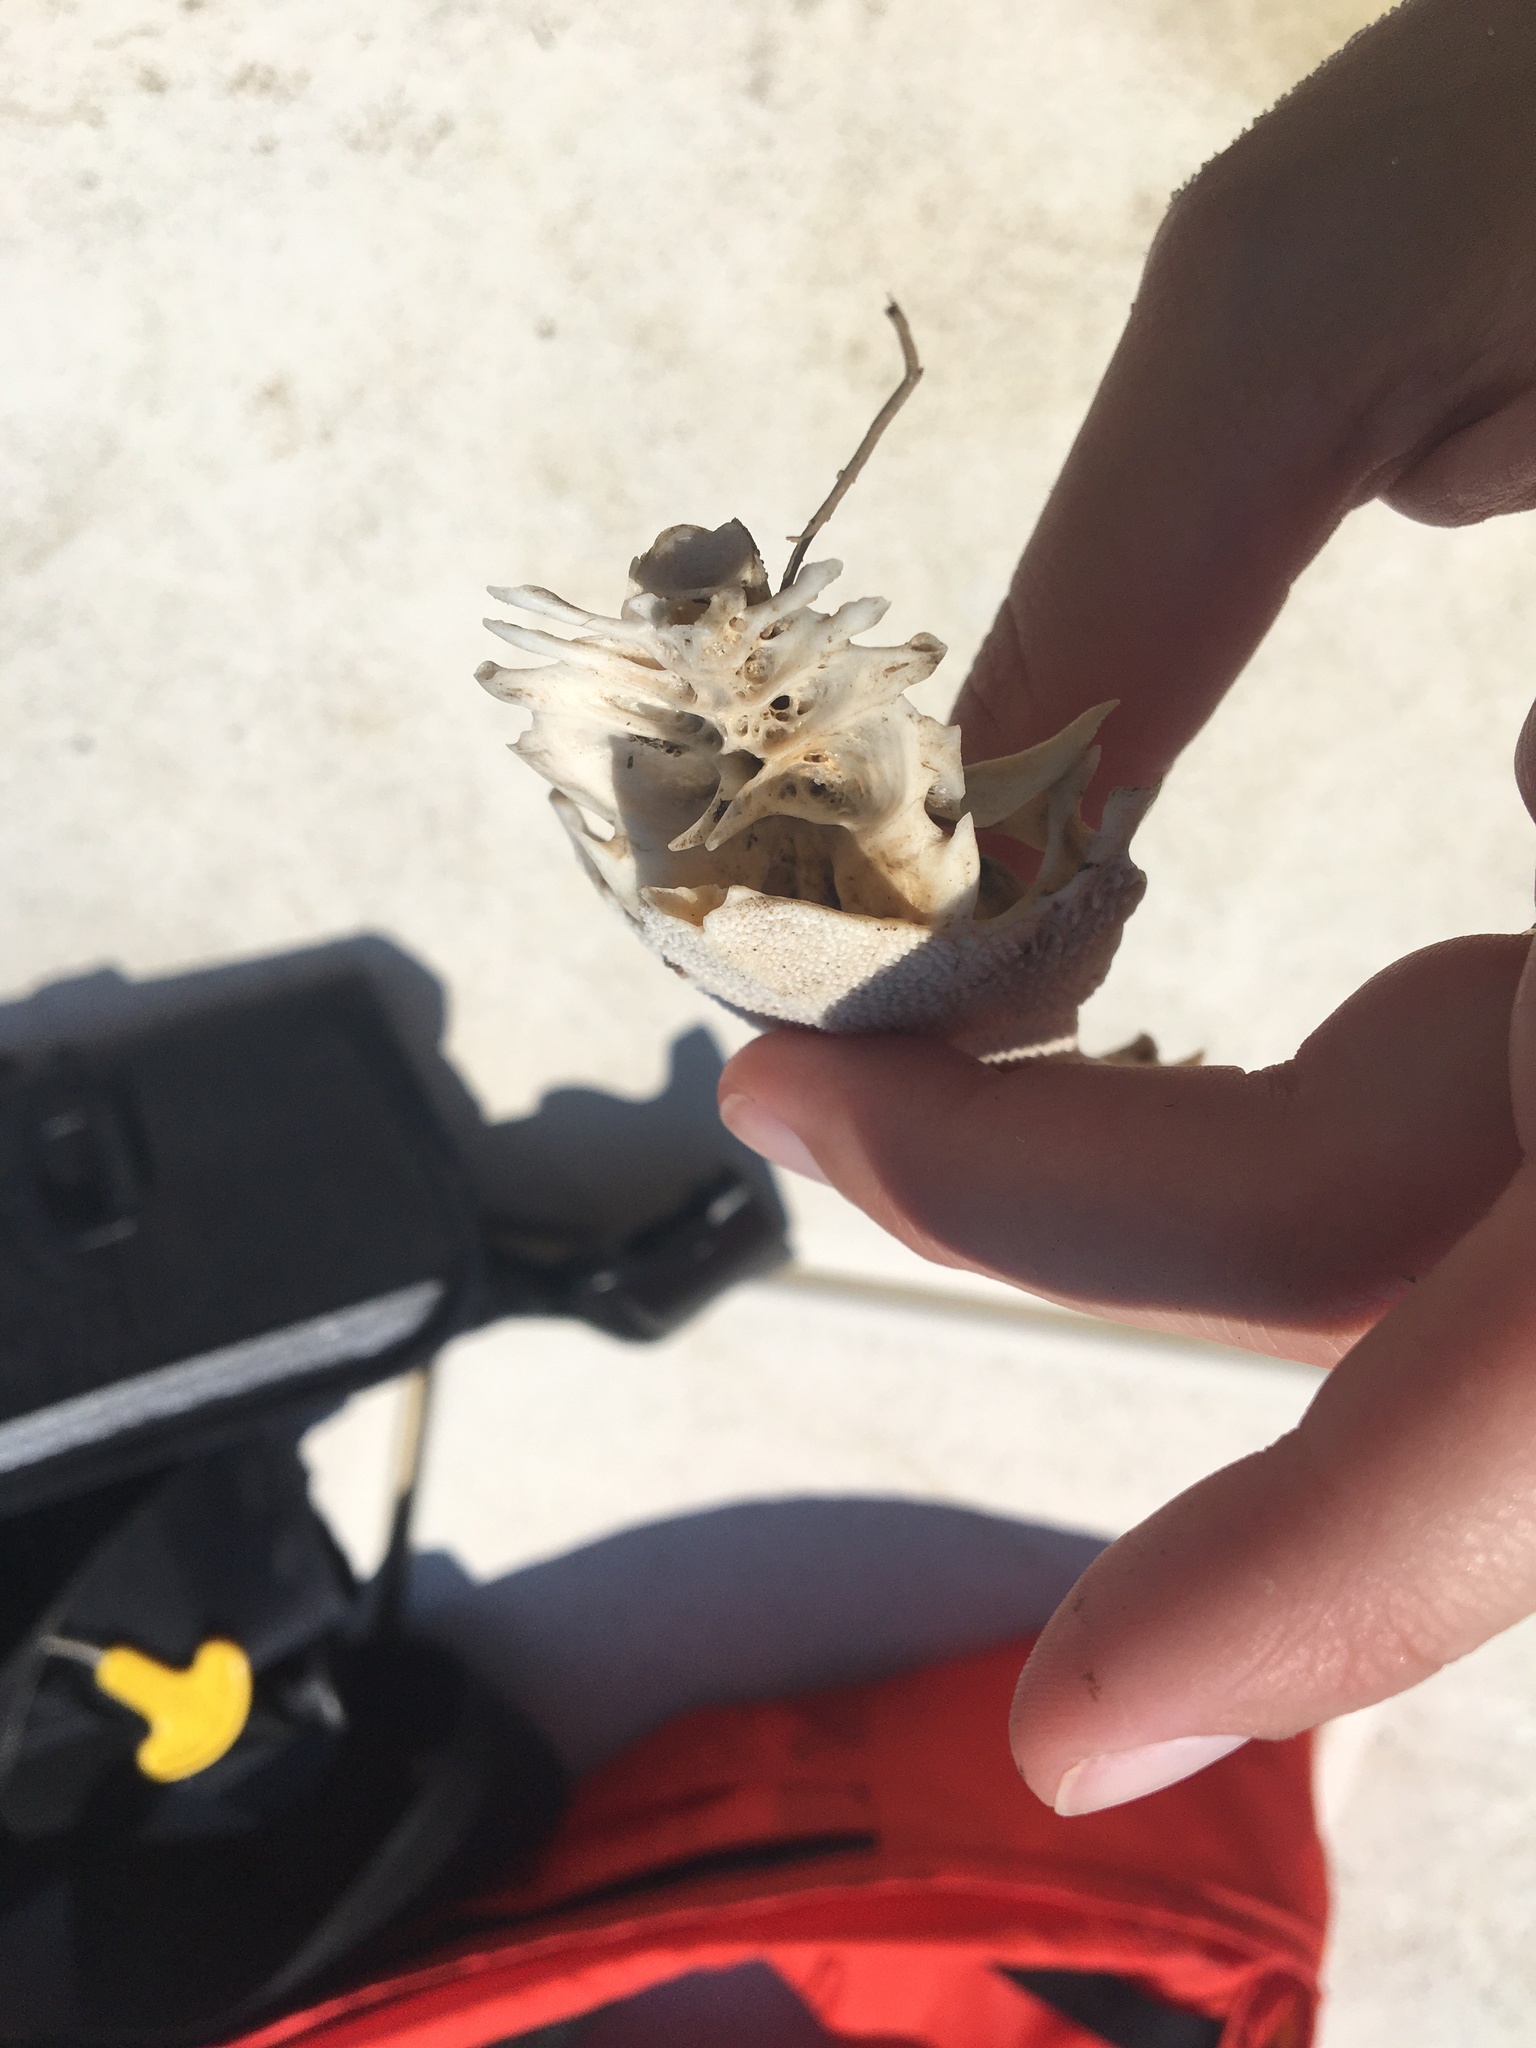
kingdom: Animalia
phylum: Chordata
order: Siluriformes
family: Ariidae
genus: Ariopsis
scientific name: Ariopsis felis
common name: Hardhead catfish
